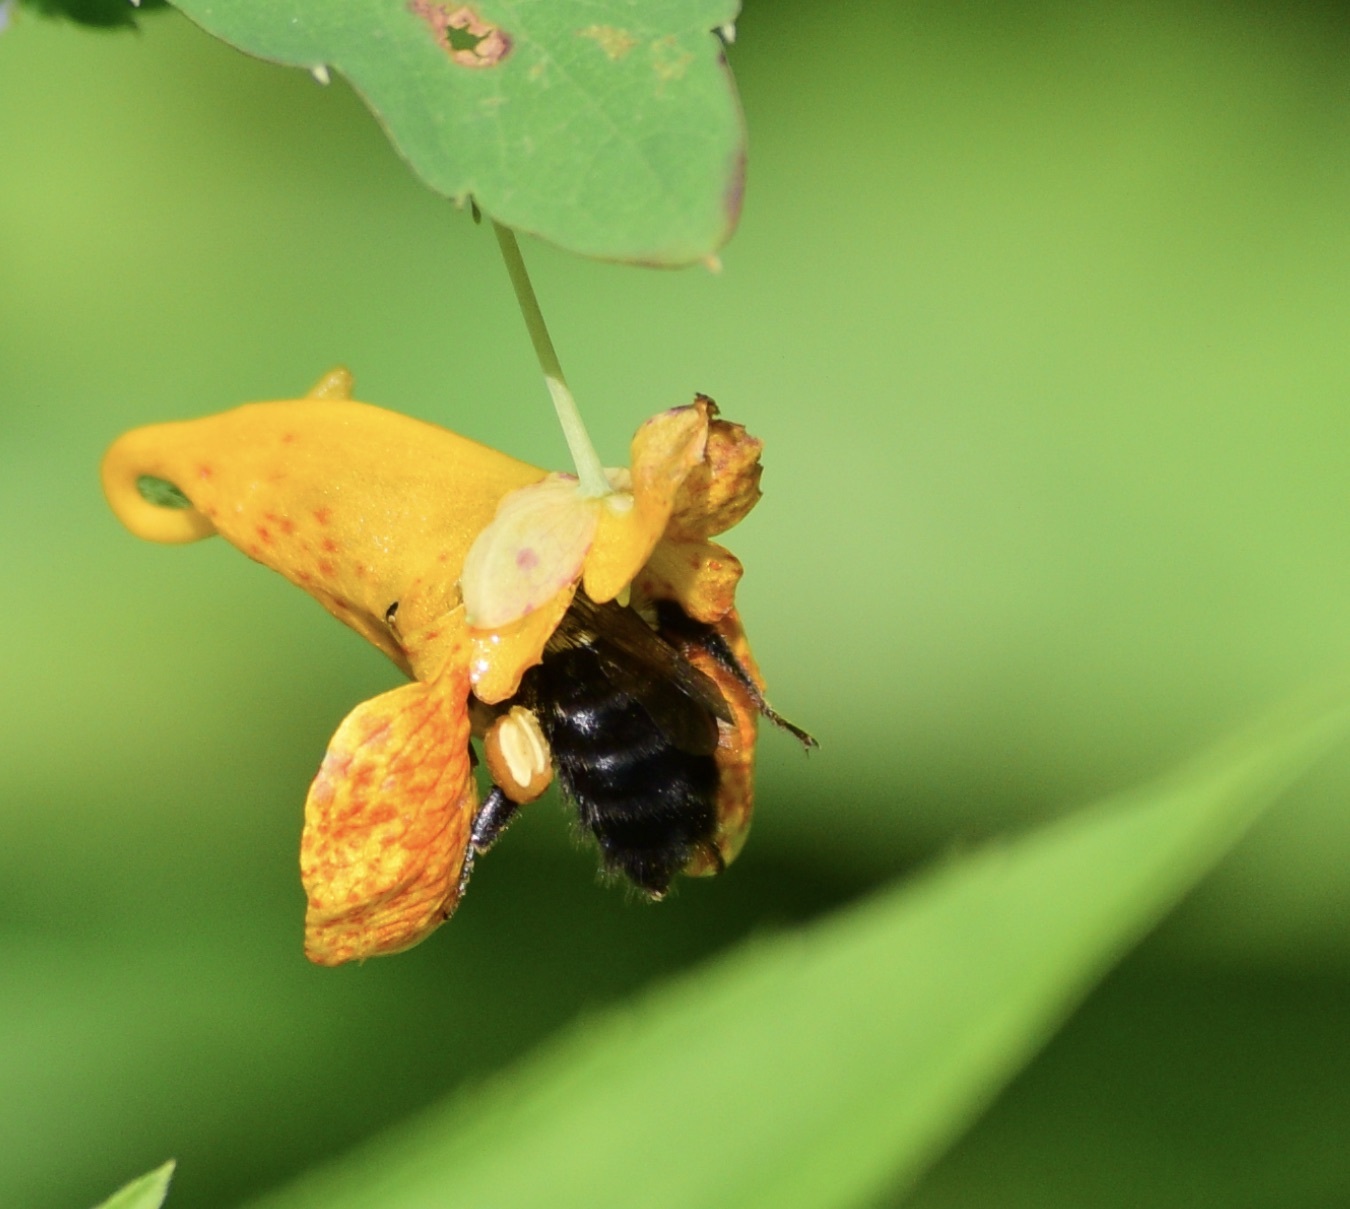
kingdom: Animalia
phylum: Arthropoda
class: Insecta
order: Hymenoptera
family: Apidae
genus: Bombus
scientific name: Bombus impatiens
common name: Common eastern bumble bee
